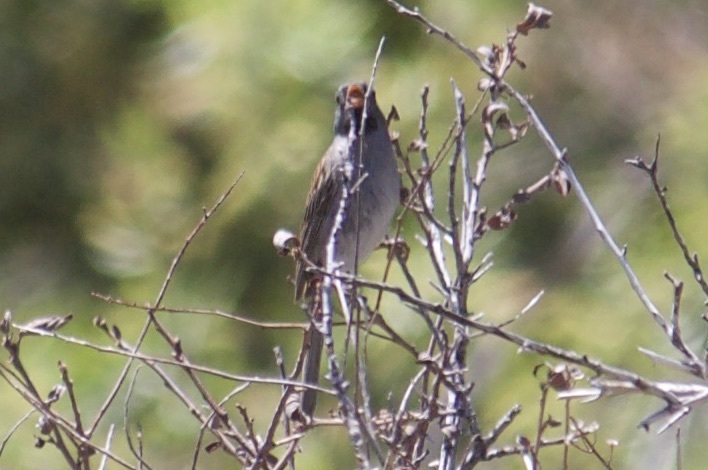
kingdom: Animalia
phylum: Chordata
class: Aves
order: Passeriformes
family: Passerellidae
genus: Spizella
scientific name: Spizella atrogularis
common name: Black-chinned sparrow
